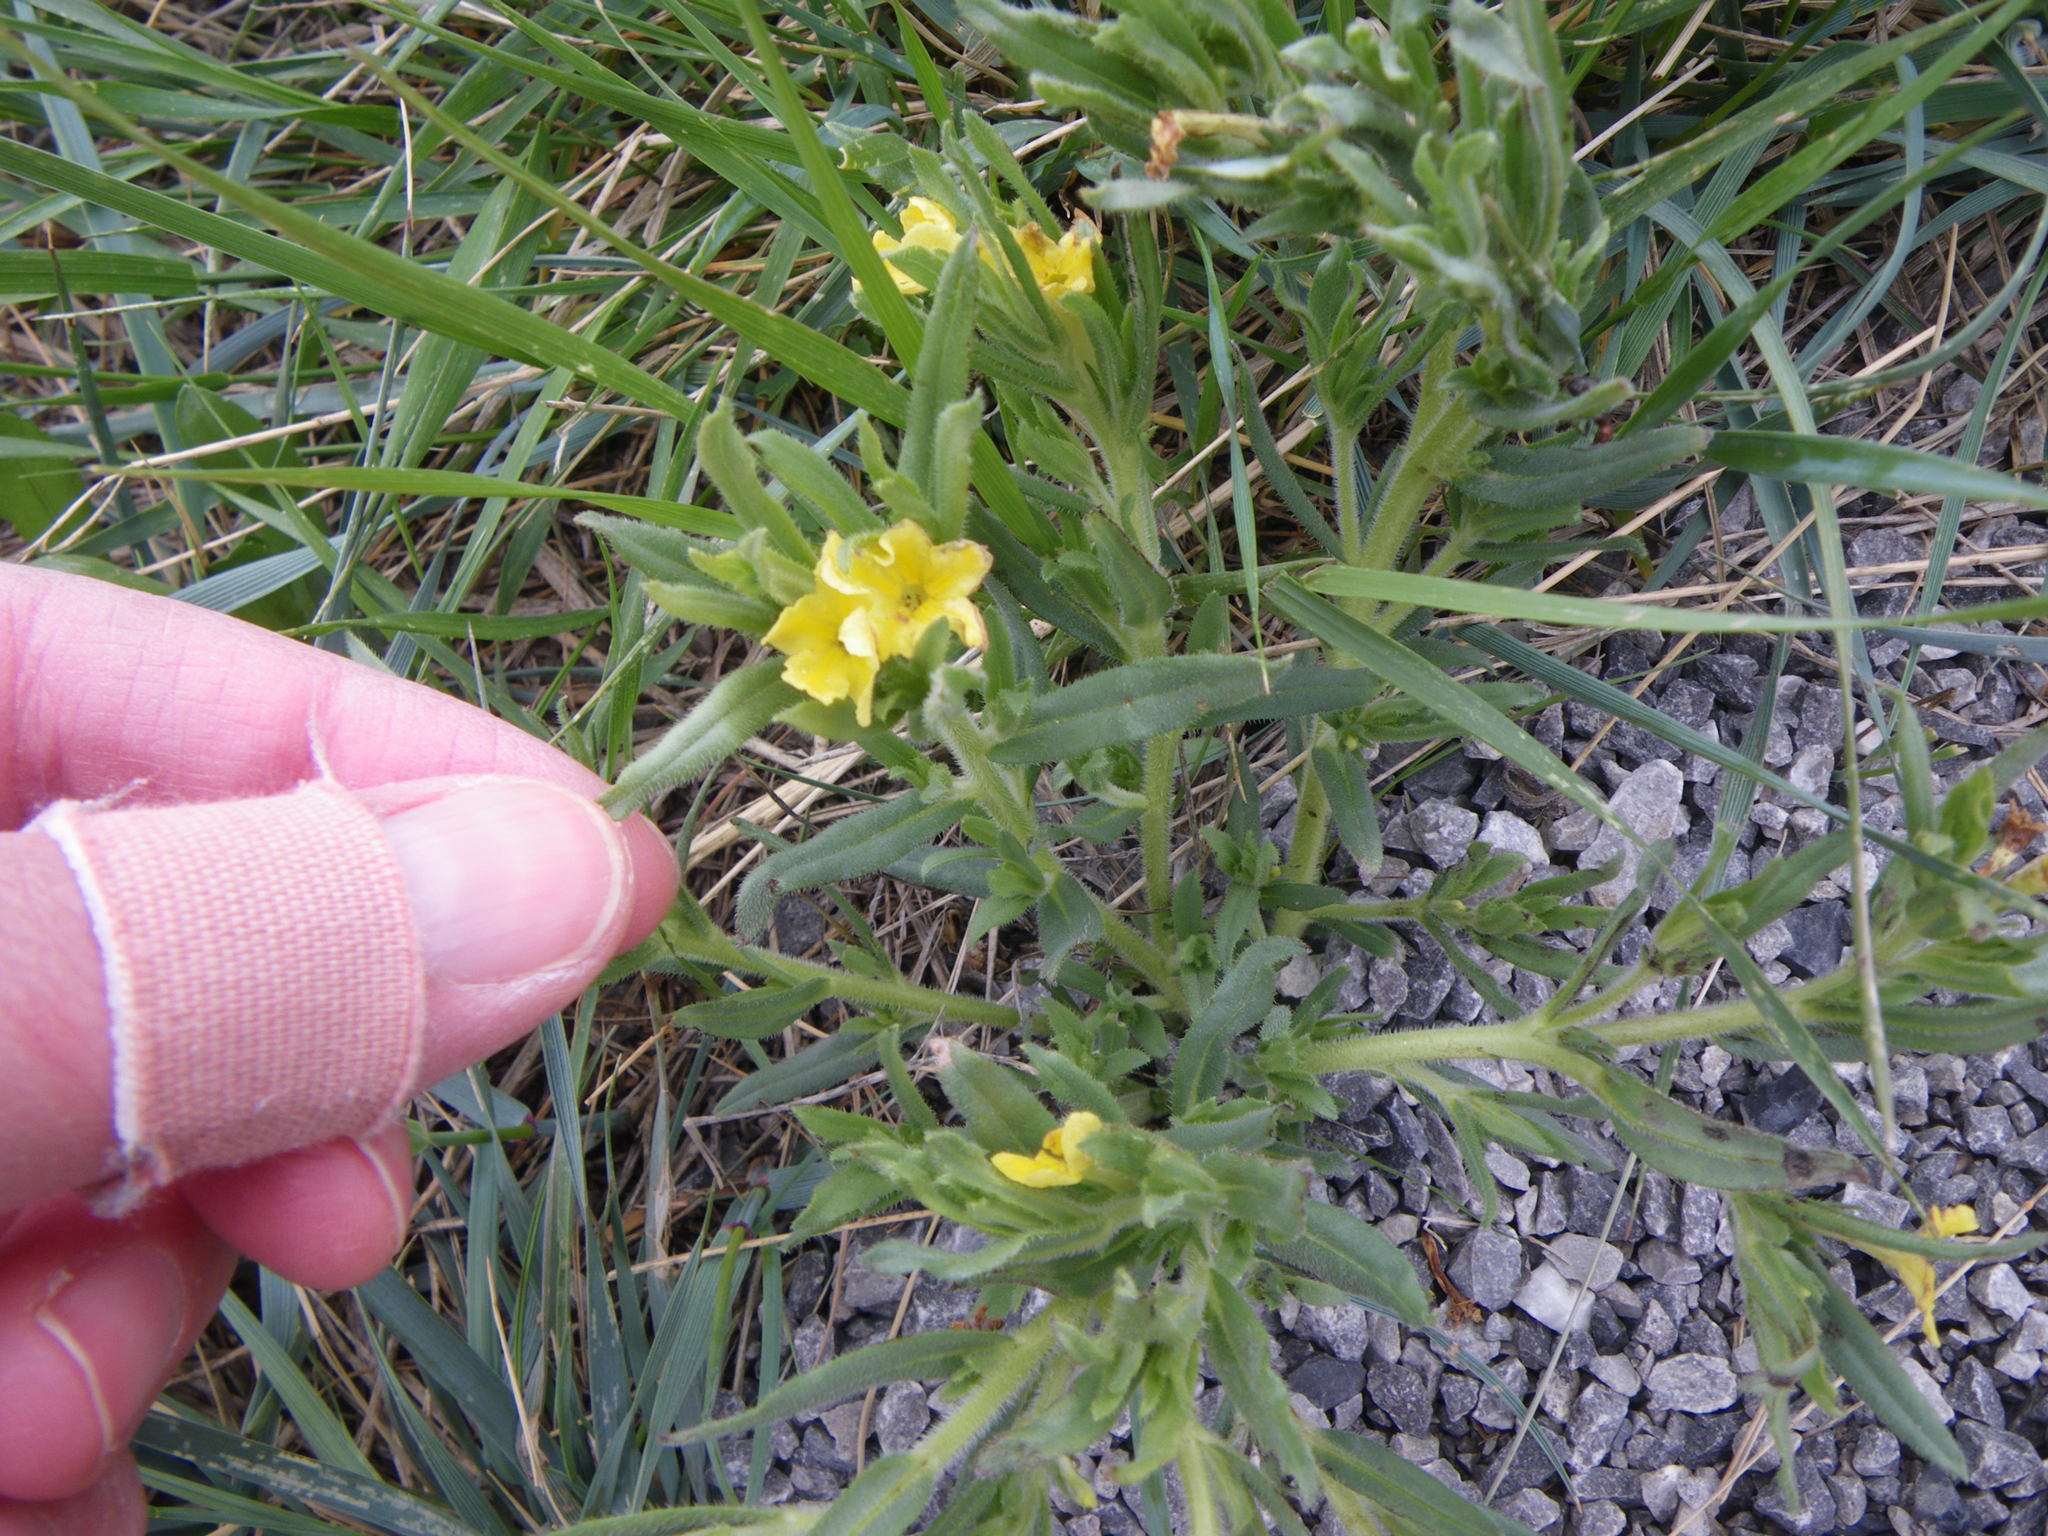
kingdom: Plantae
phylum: Tracheophyta
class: Magnoliopsida
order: Boraginales
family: Boraginaceae
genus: Lithospermum
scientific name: Lithospermum incisum
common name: Fringed gromwell
